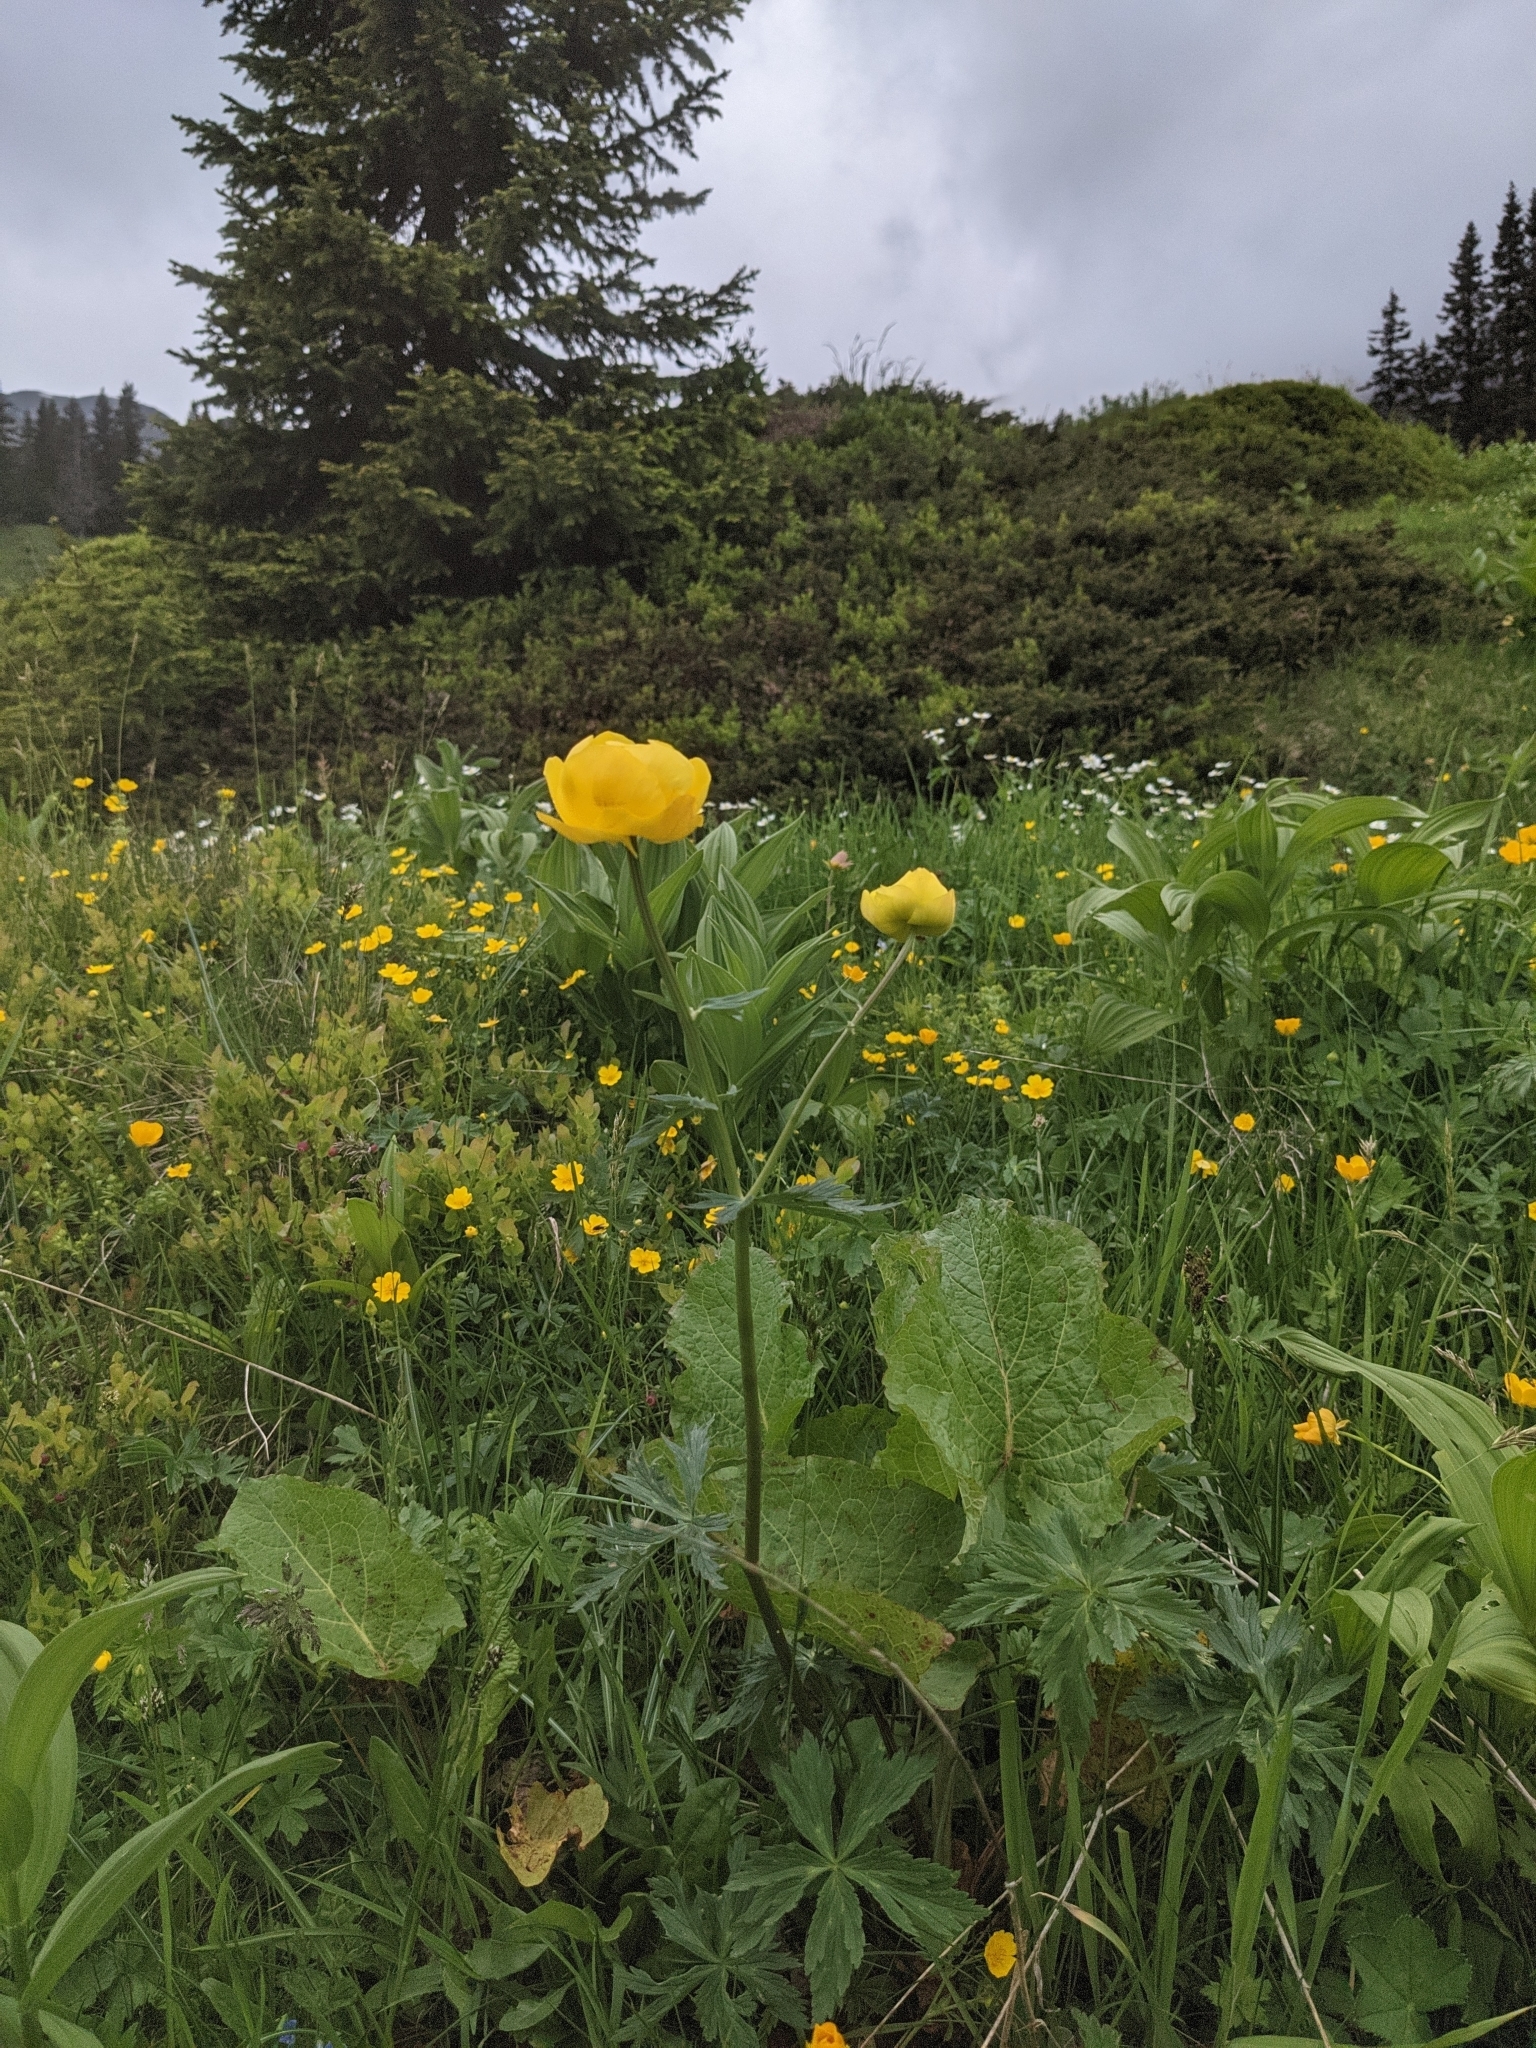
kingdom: Plantae
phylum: Tracheophyta
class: Magnoliopsida
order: Ranunculales
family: Ranunculaceae
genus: Trollius
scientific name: Trollius europaeus
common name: European globeflower
